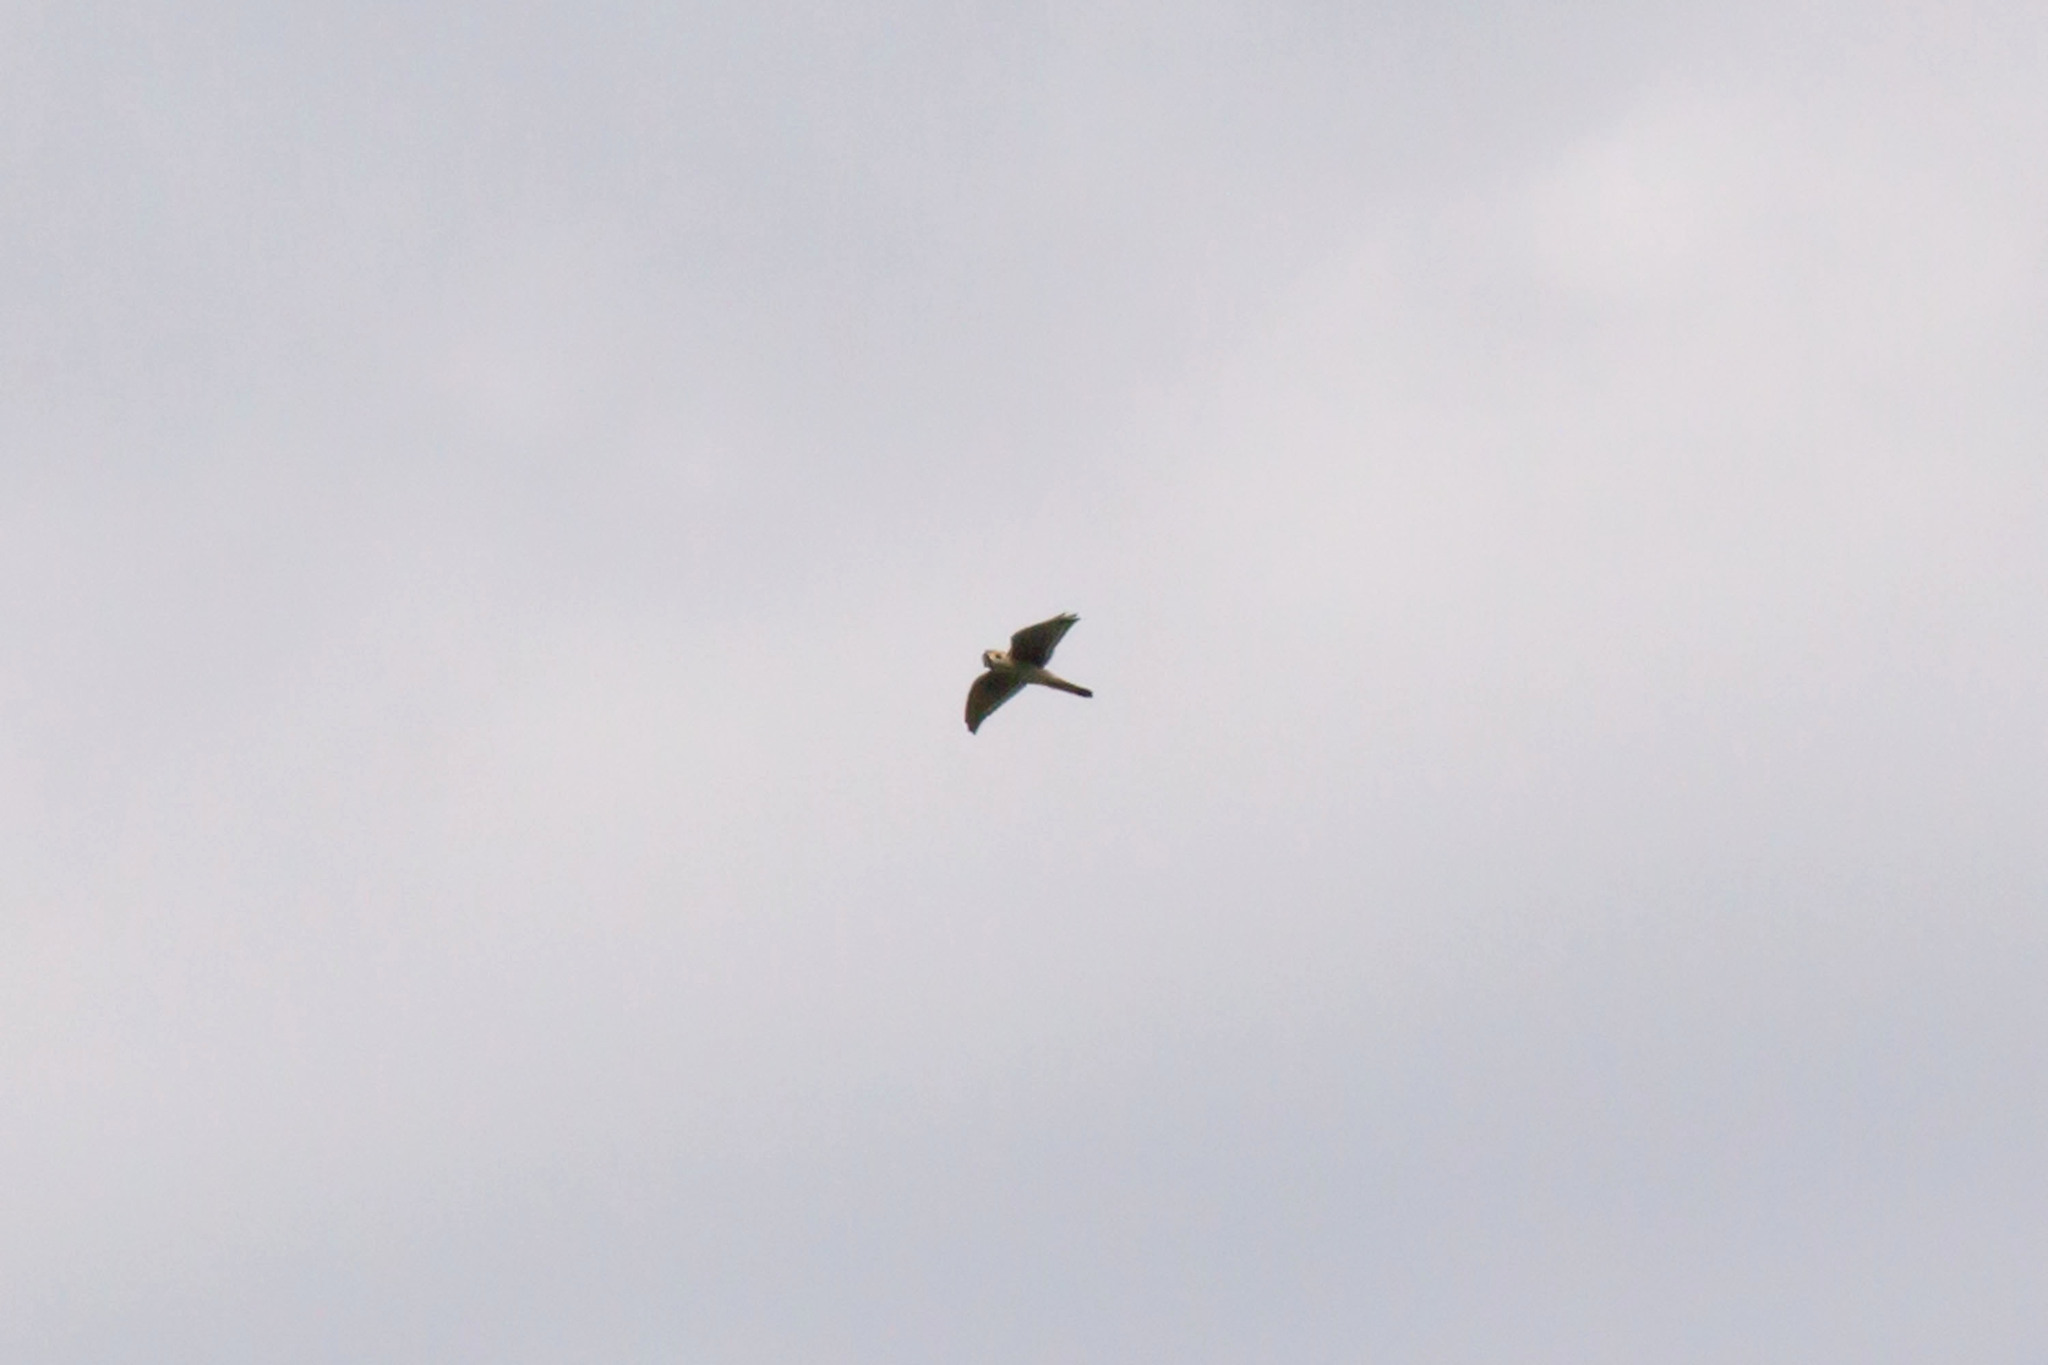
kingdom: Animalia
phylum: Chordata
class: Aves
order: Falconiformes
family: Falconidae
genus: Falco
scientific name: Falco sparverius
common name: American kestrel
